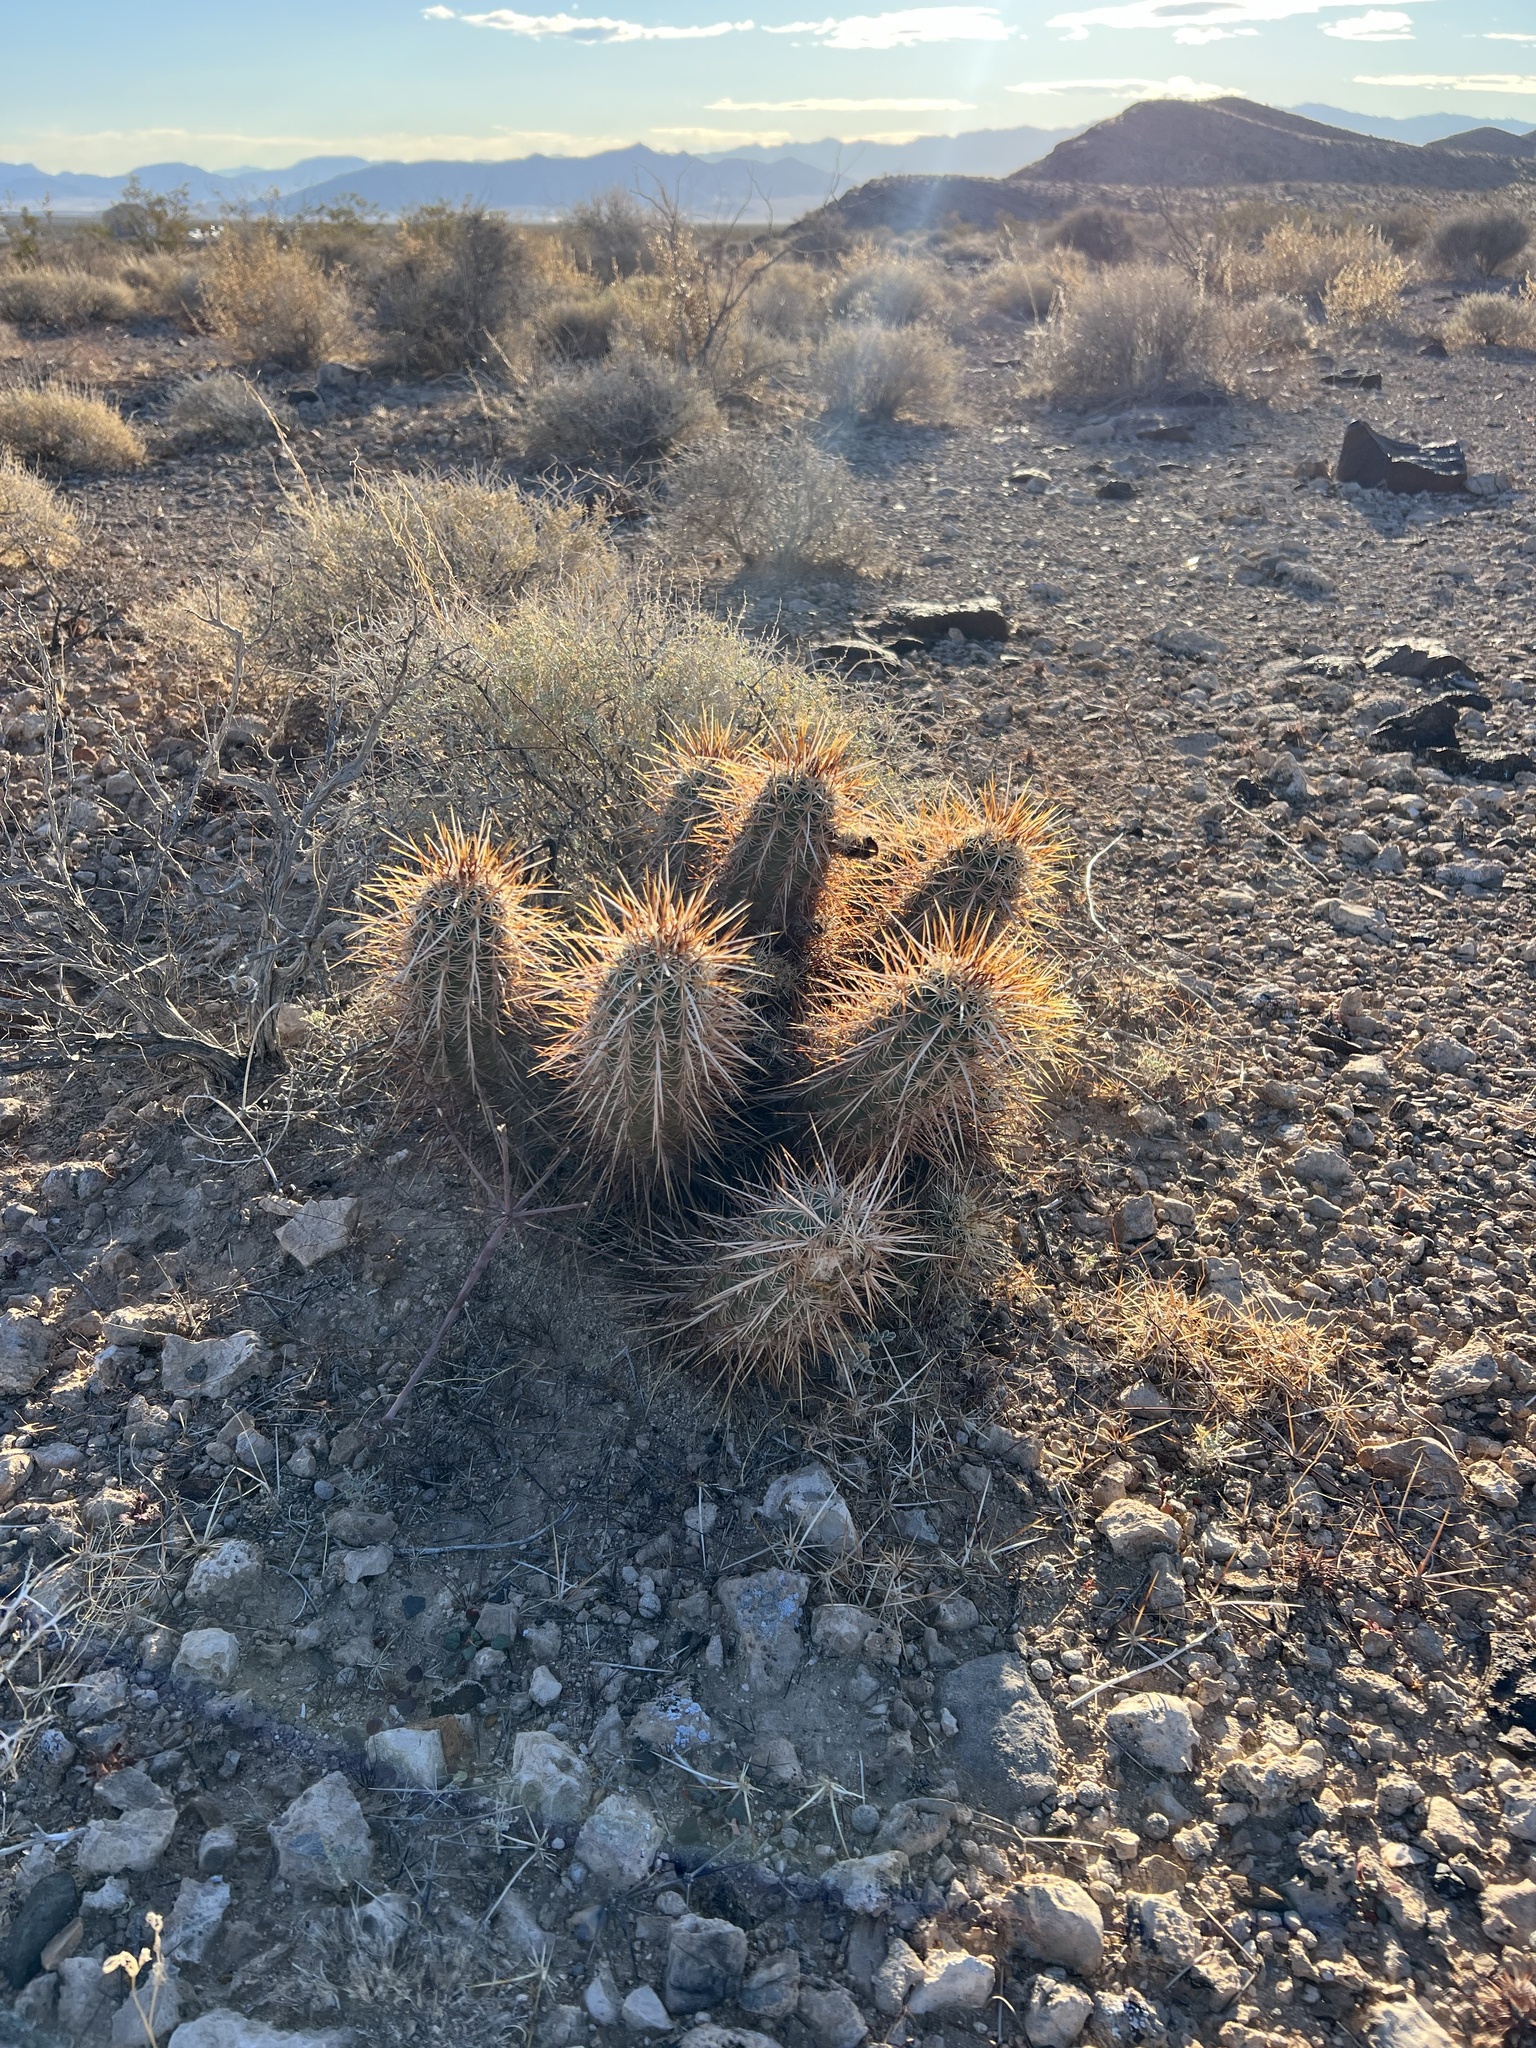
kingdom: Plantae
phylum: Tracheophyta
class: Magnoliopsida
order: Caryophyllales
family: Cactaceae
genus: Echinocereus
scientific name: Echinocereus engelmannii
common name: Engelmann's hedgehog cactus
